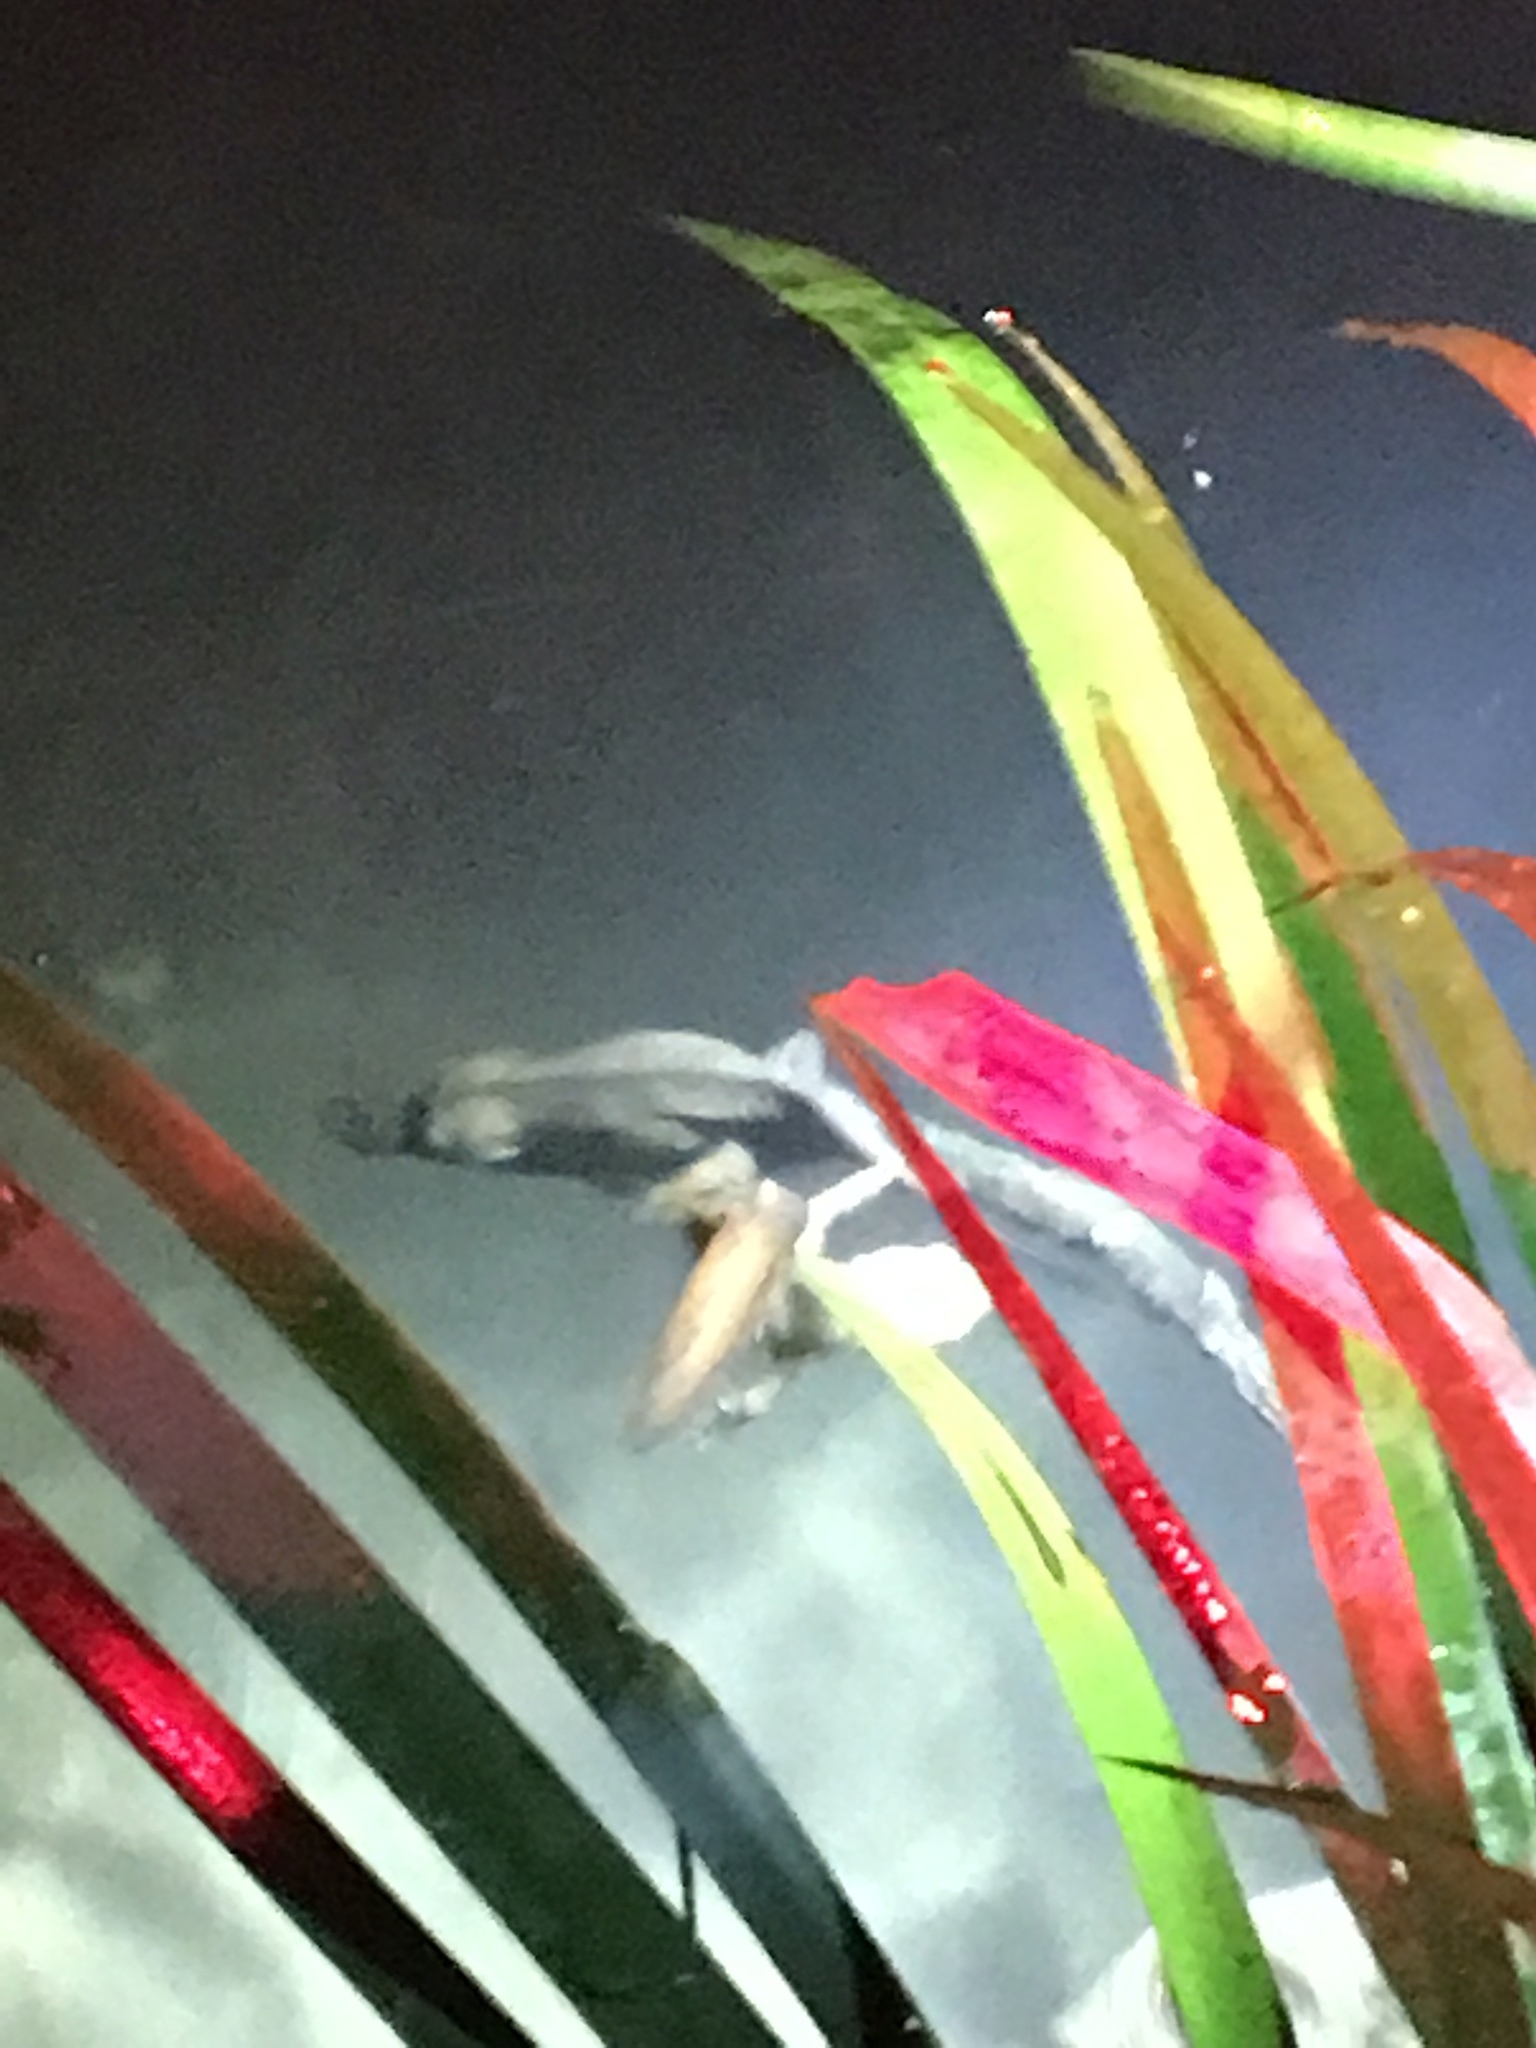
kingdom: Animalia
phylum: Chordata
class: Amphibia
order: Caudata
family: Salamandridae
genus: Paramesotriton
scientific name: Paramesotriton hongkongensis
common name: Hong kong warty newt
